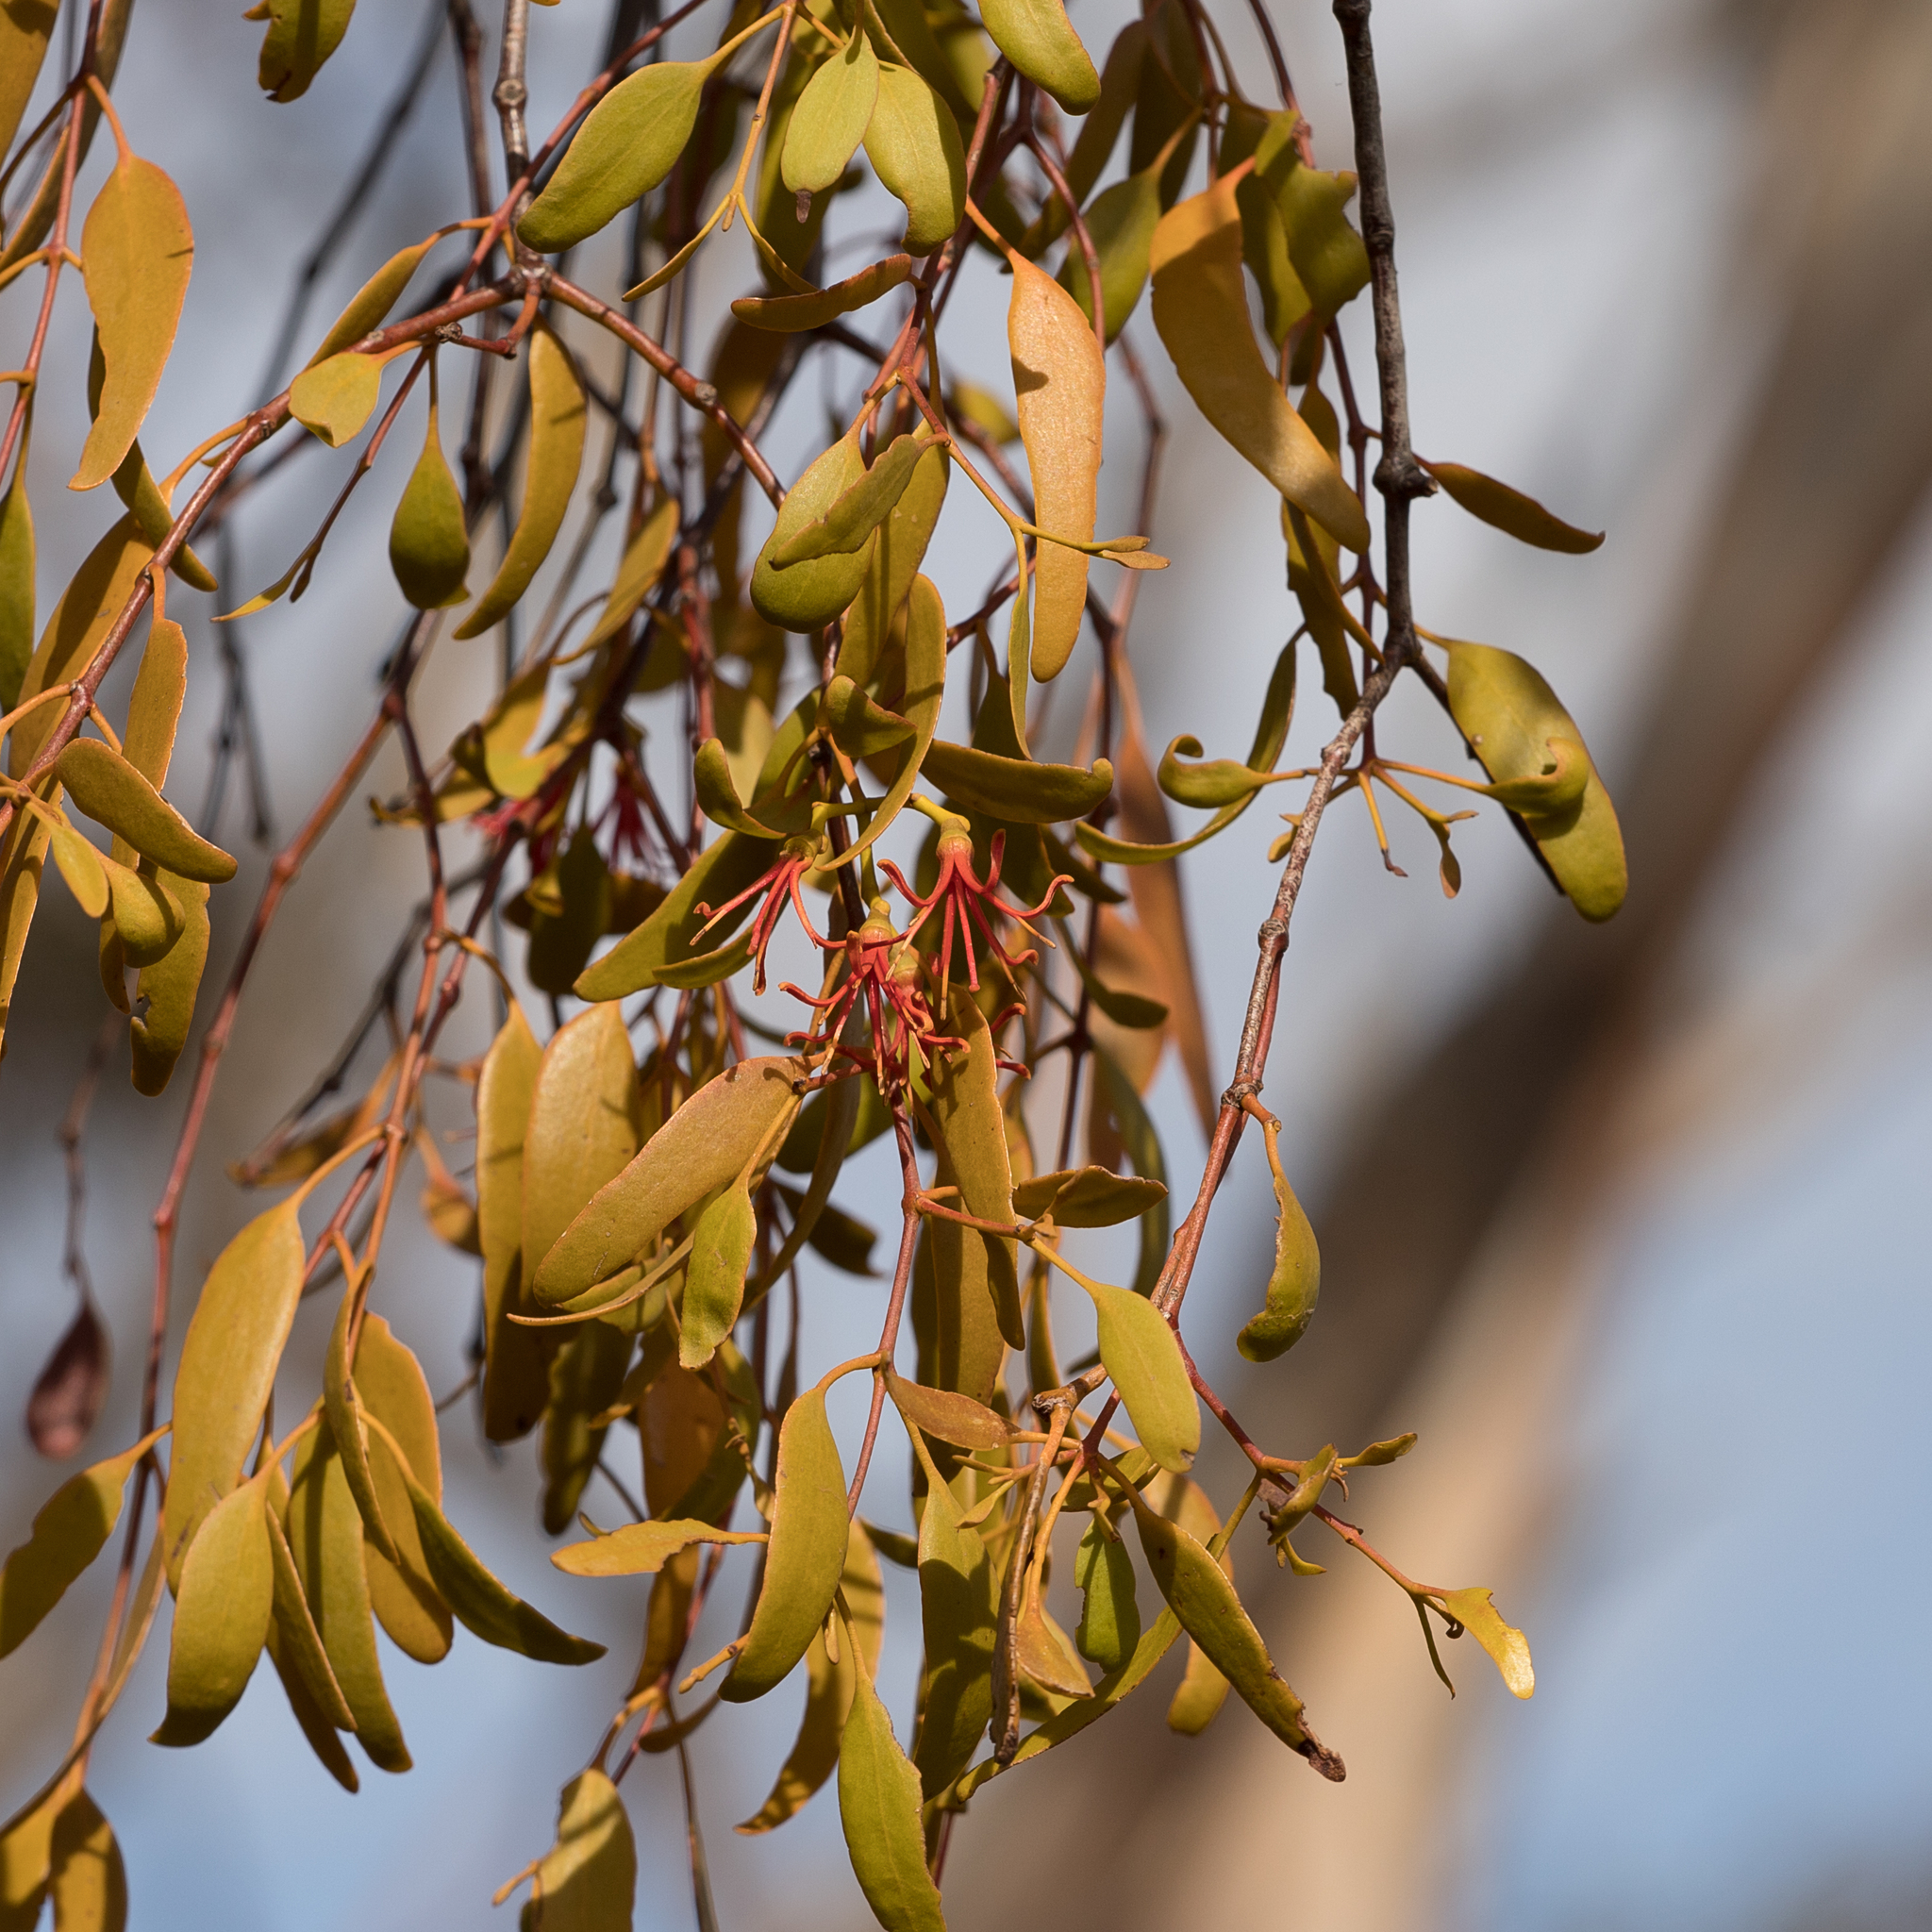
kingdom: Plantae
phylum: Tracheophyta
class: Magnoliopsida
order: Santalales
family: Loranthaceae
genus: Amyema
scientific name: Amyema miquelii
